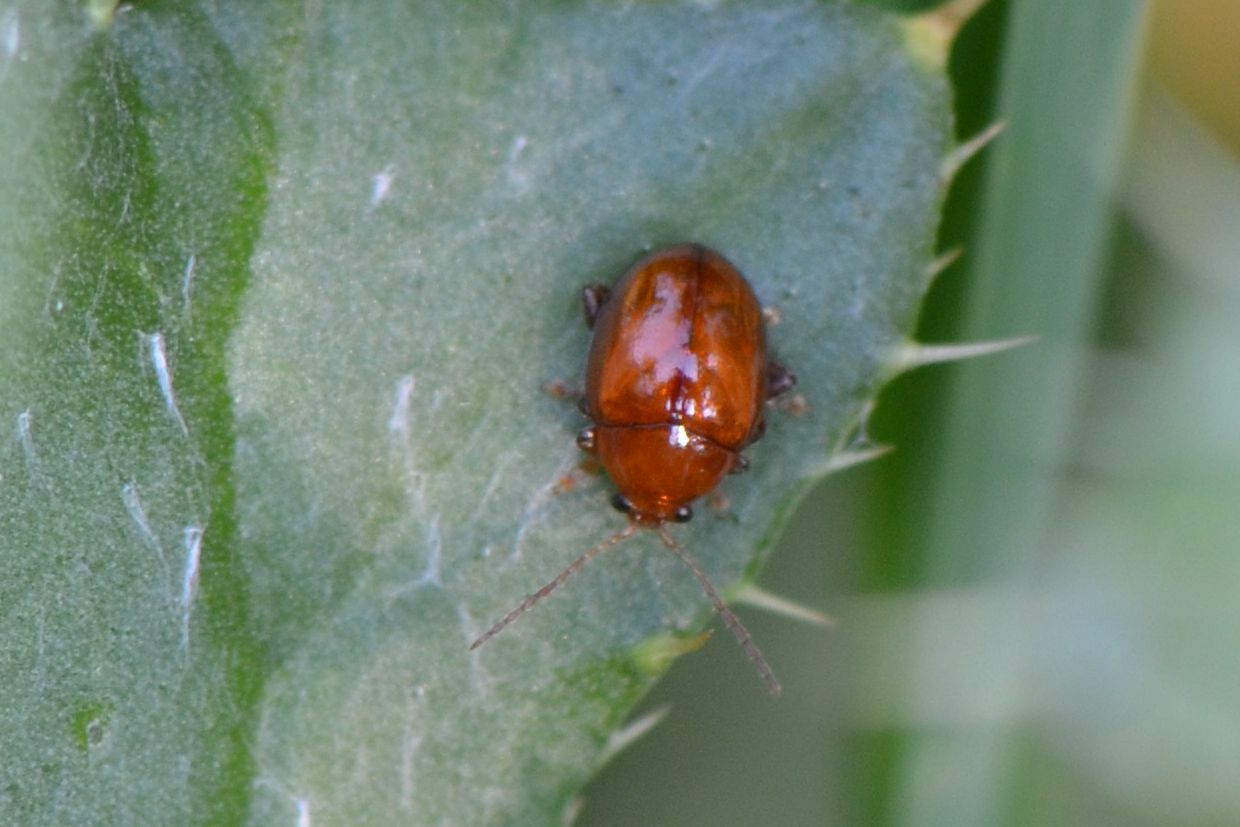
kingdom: Animalia
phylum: Arthropoda
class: Insecta
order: Coleoptera
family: Chrysomelidae
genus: Pistosia
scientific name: Pistosia testacea
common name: Leaf beetle
